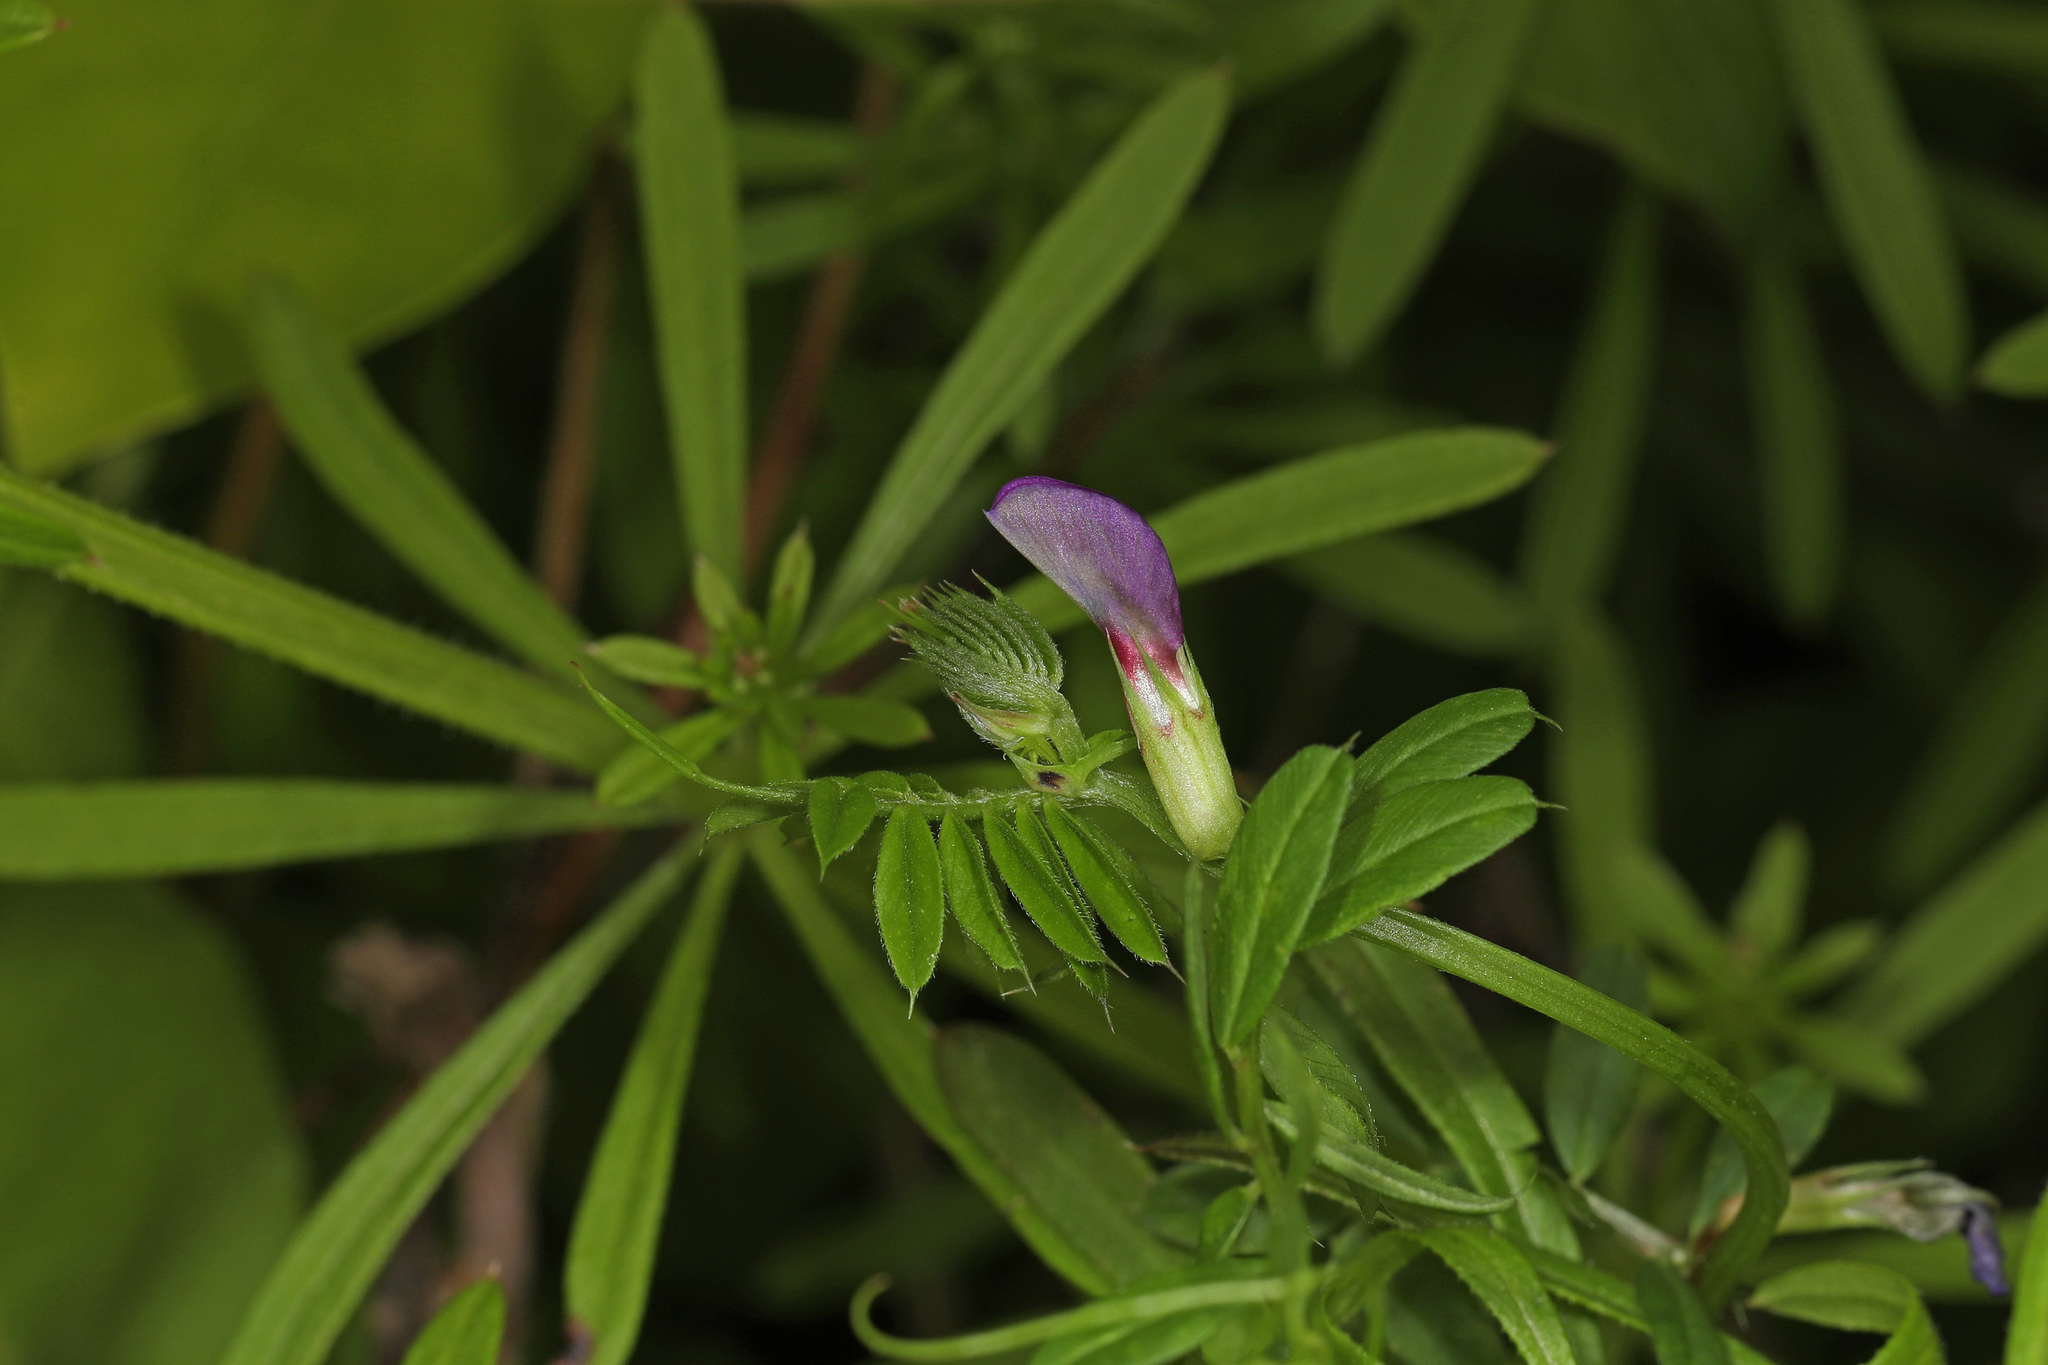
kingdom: Plantae
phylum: Tracheophyta
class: Magnoliopsida
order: Fabales
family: Fabaceae
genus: Vicia
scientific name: Vicia sativa
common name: Garden vetch
